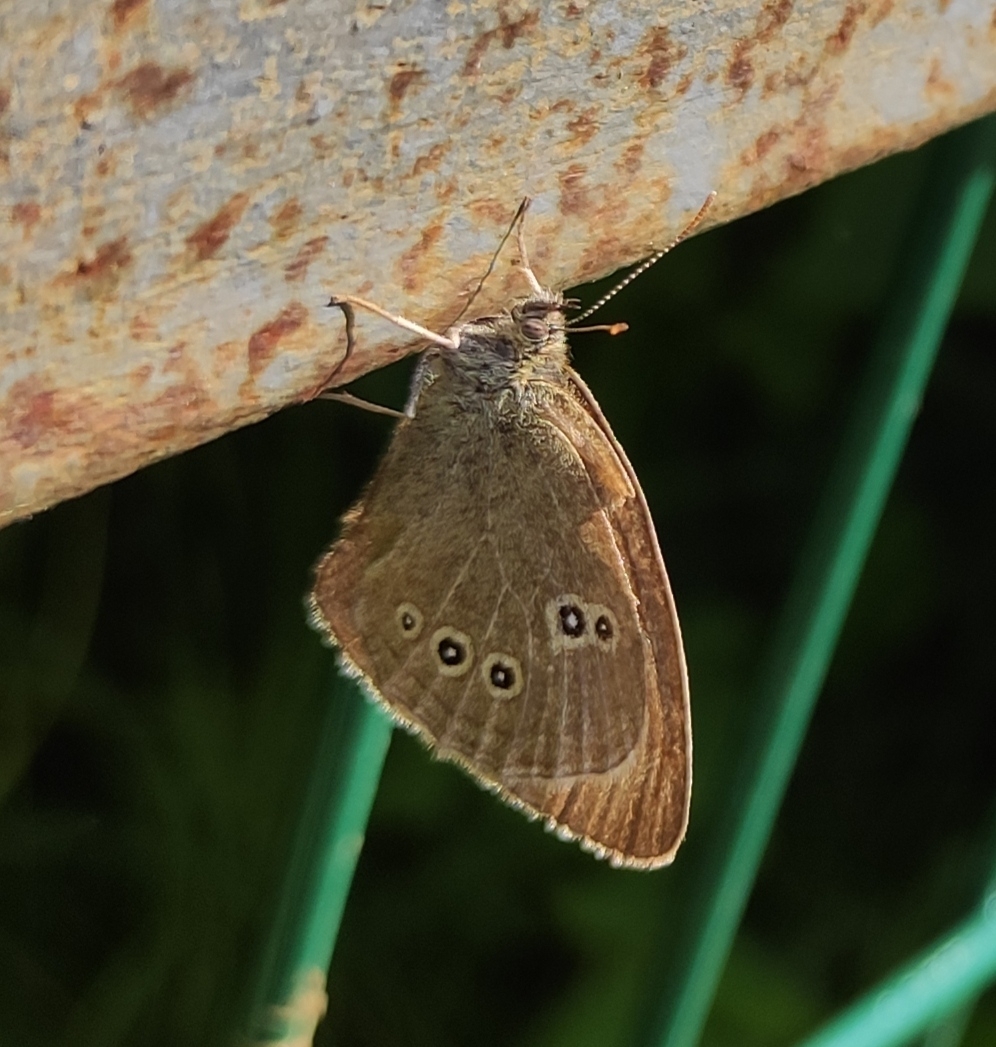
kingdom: Animalia
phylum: Arthropoda
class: Insecta
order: Lepidoptera
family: Nymphalidae
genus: Aphantopus
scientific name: Aphantopus hyperantus
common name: Ringlet
